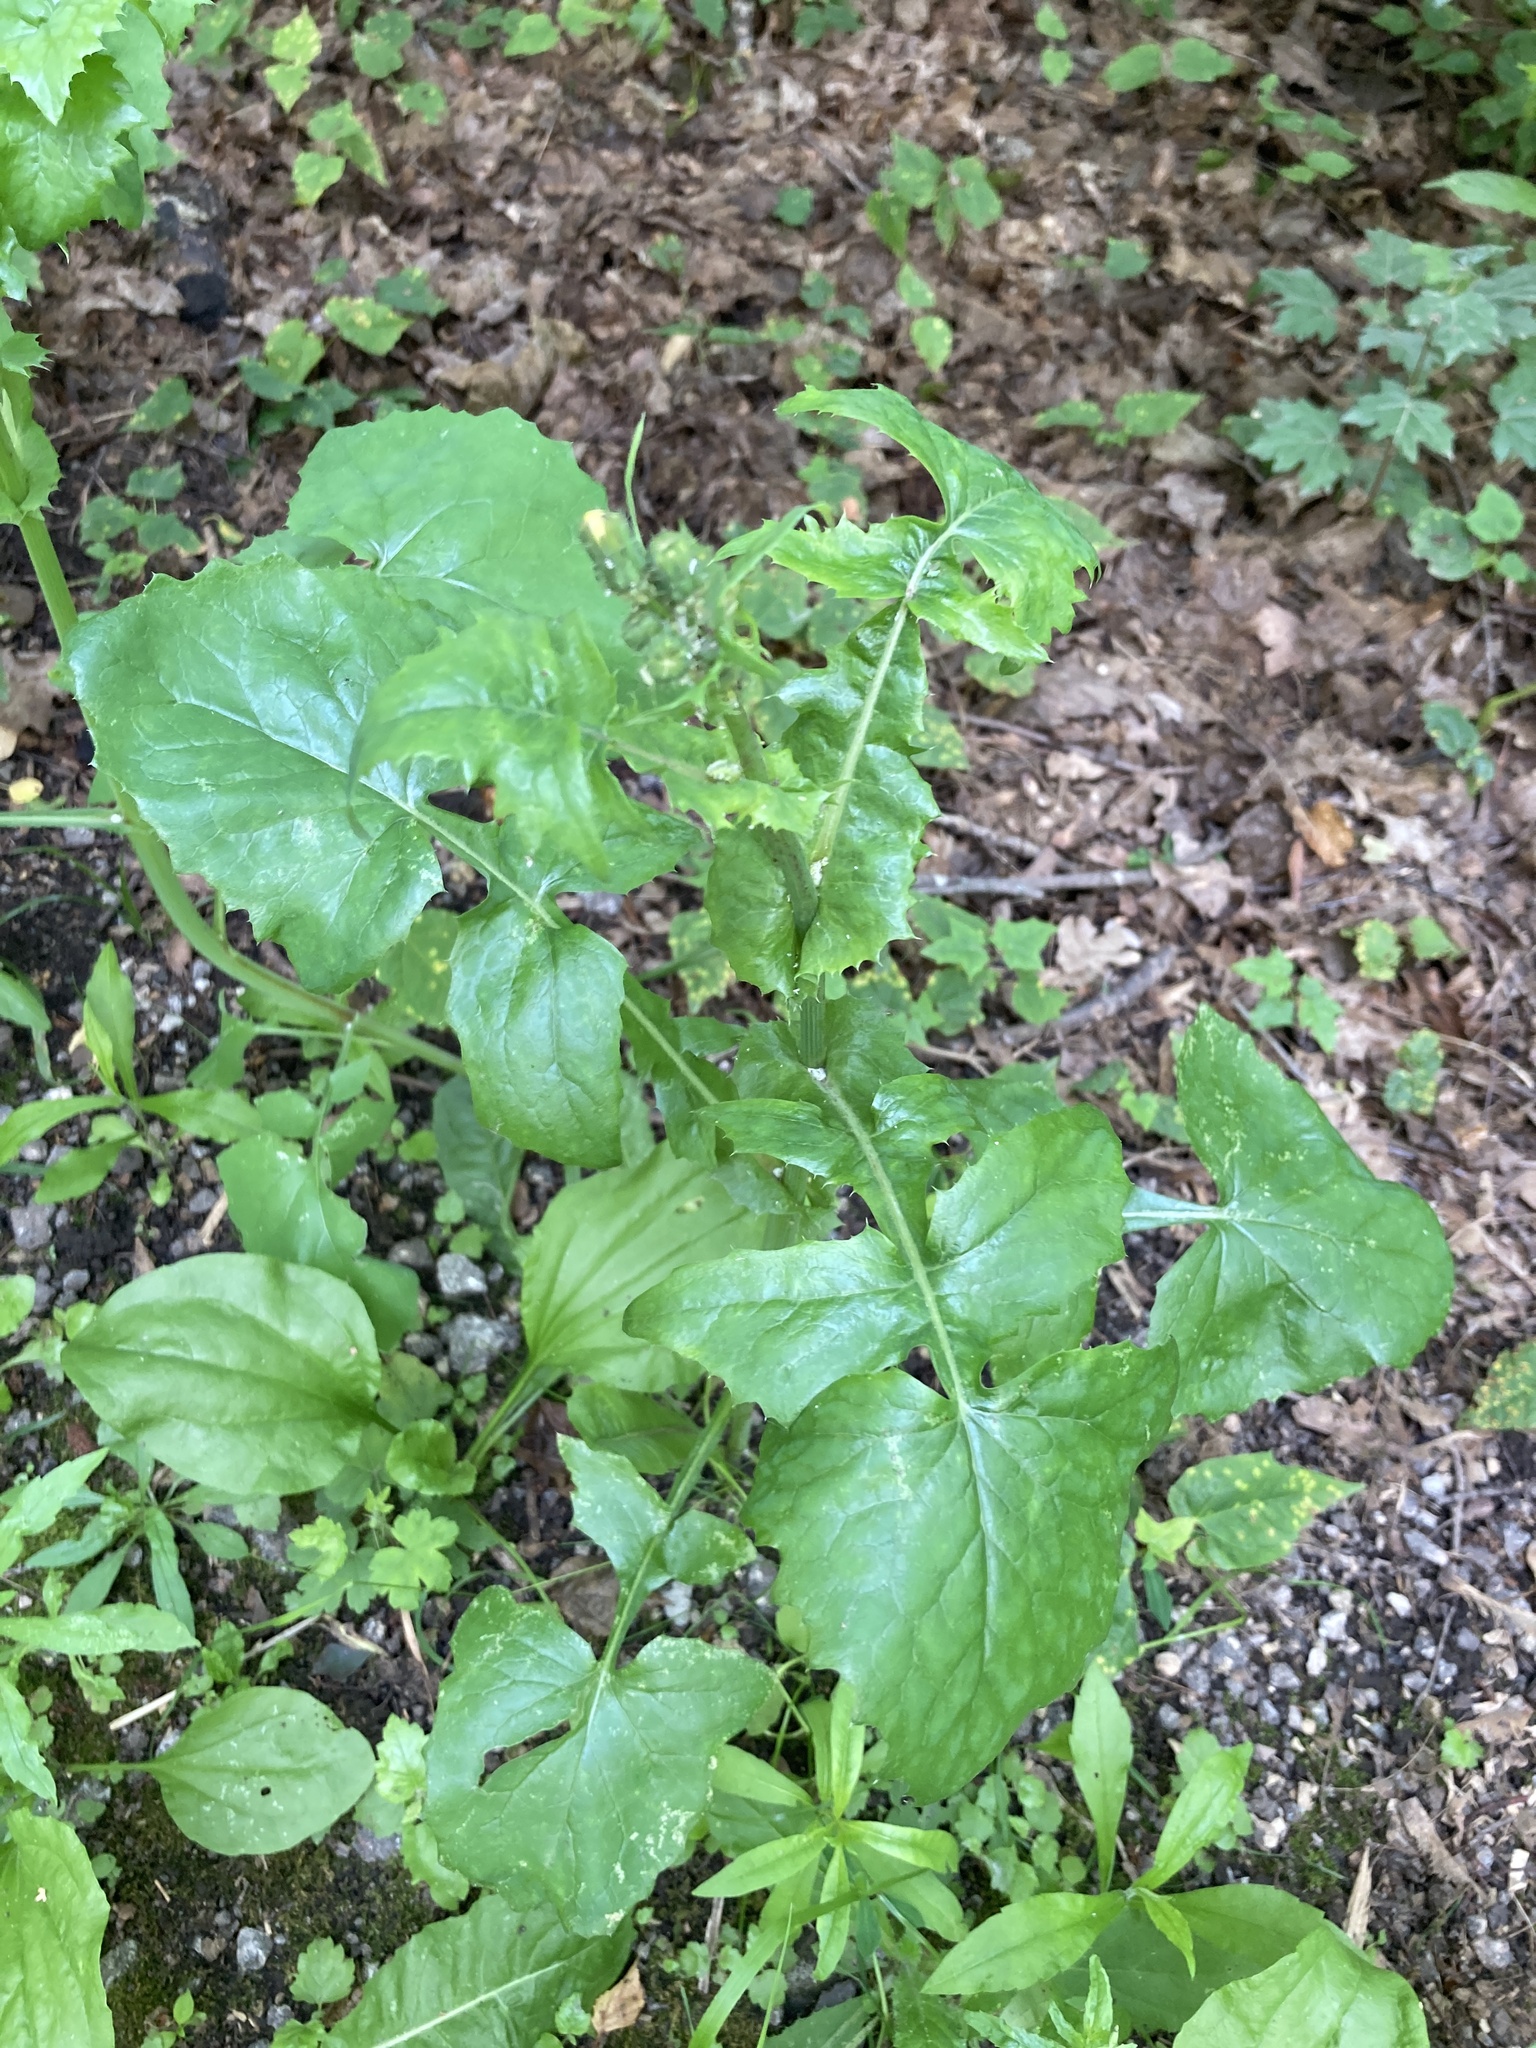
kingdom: Plantae
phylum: Tracheophyta
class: Magnoliopsida
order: Asterales
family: Asteraceae
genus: Sonchus
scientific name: Sonchus oleraceus
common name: Common sowthistle
